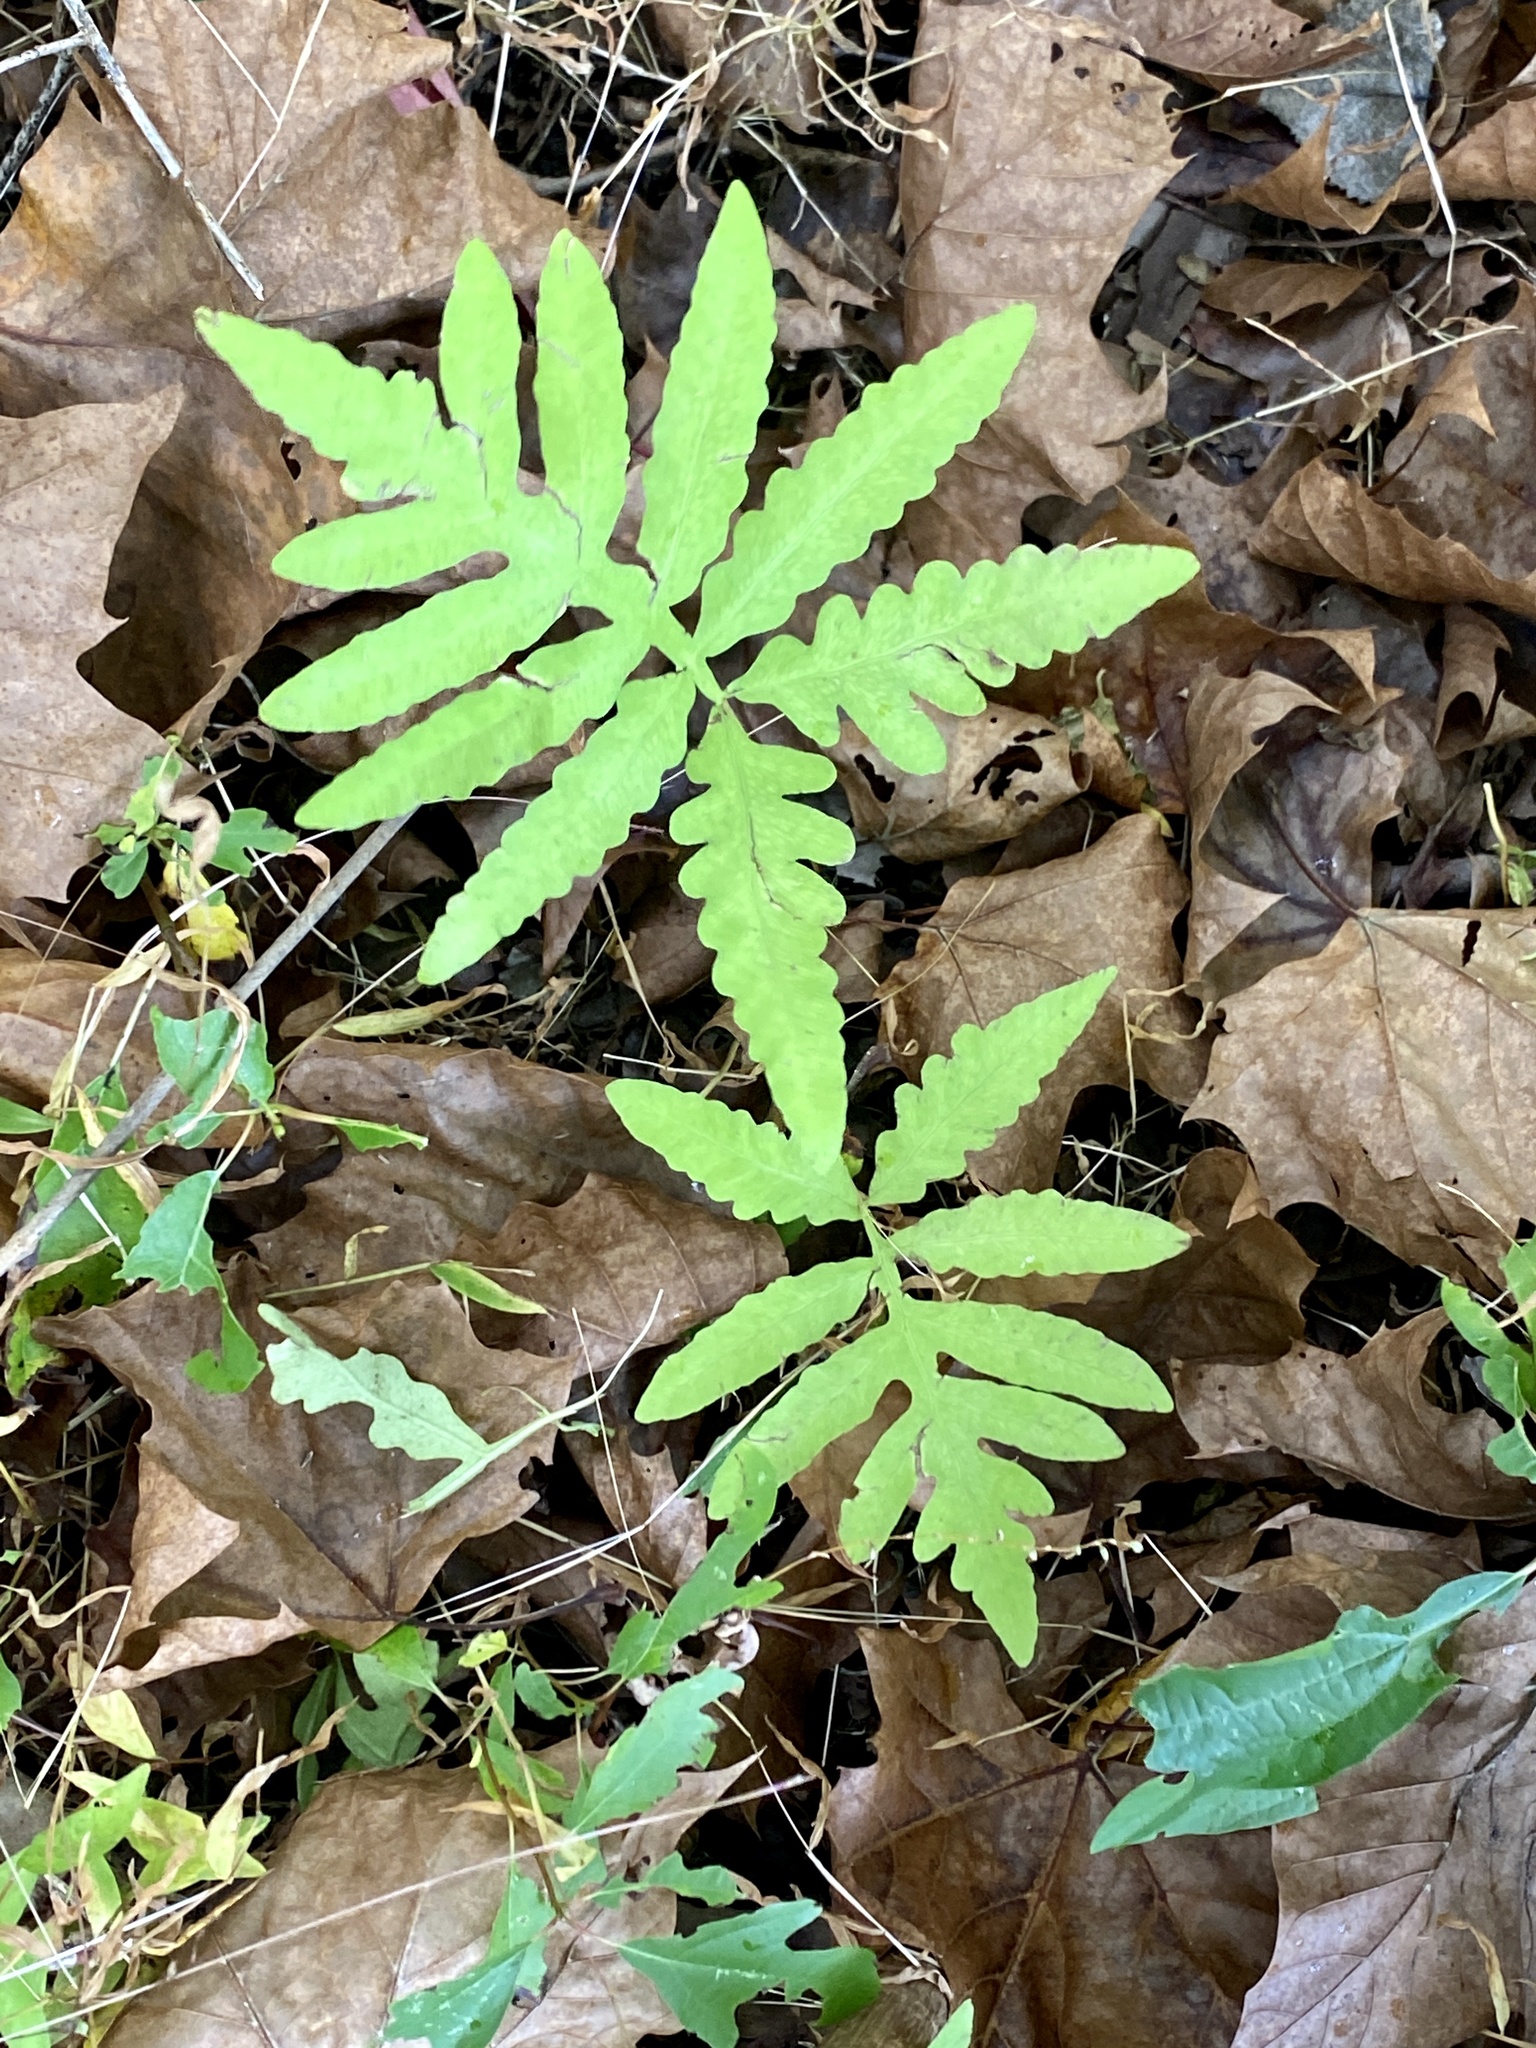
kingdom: Plantae
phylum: Tracheophyta
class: Polypodiopsida
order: Polypodiales
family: Onocleaceae
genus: Onoclea
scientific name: Onoclea sensibilis
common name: Sensitive fern
